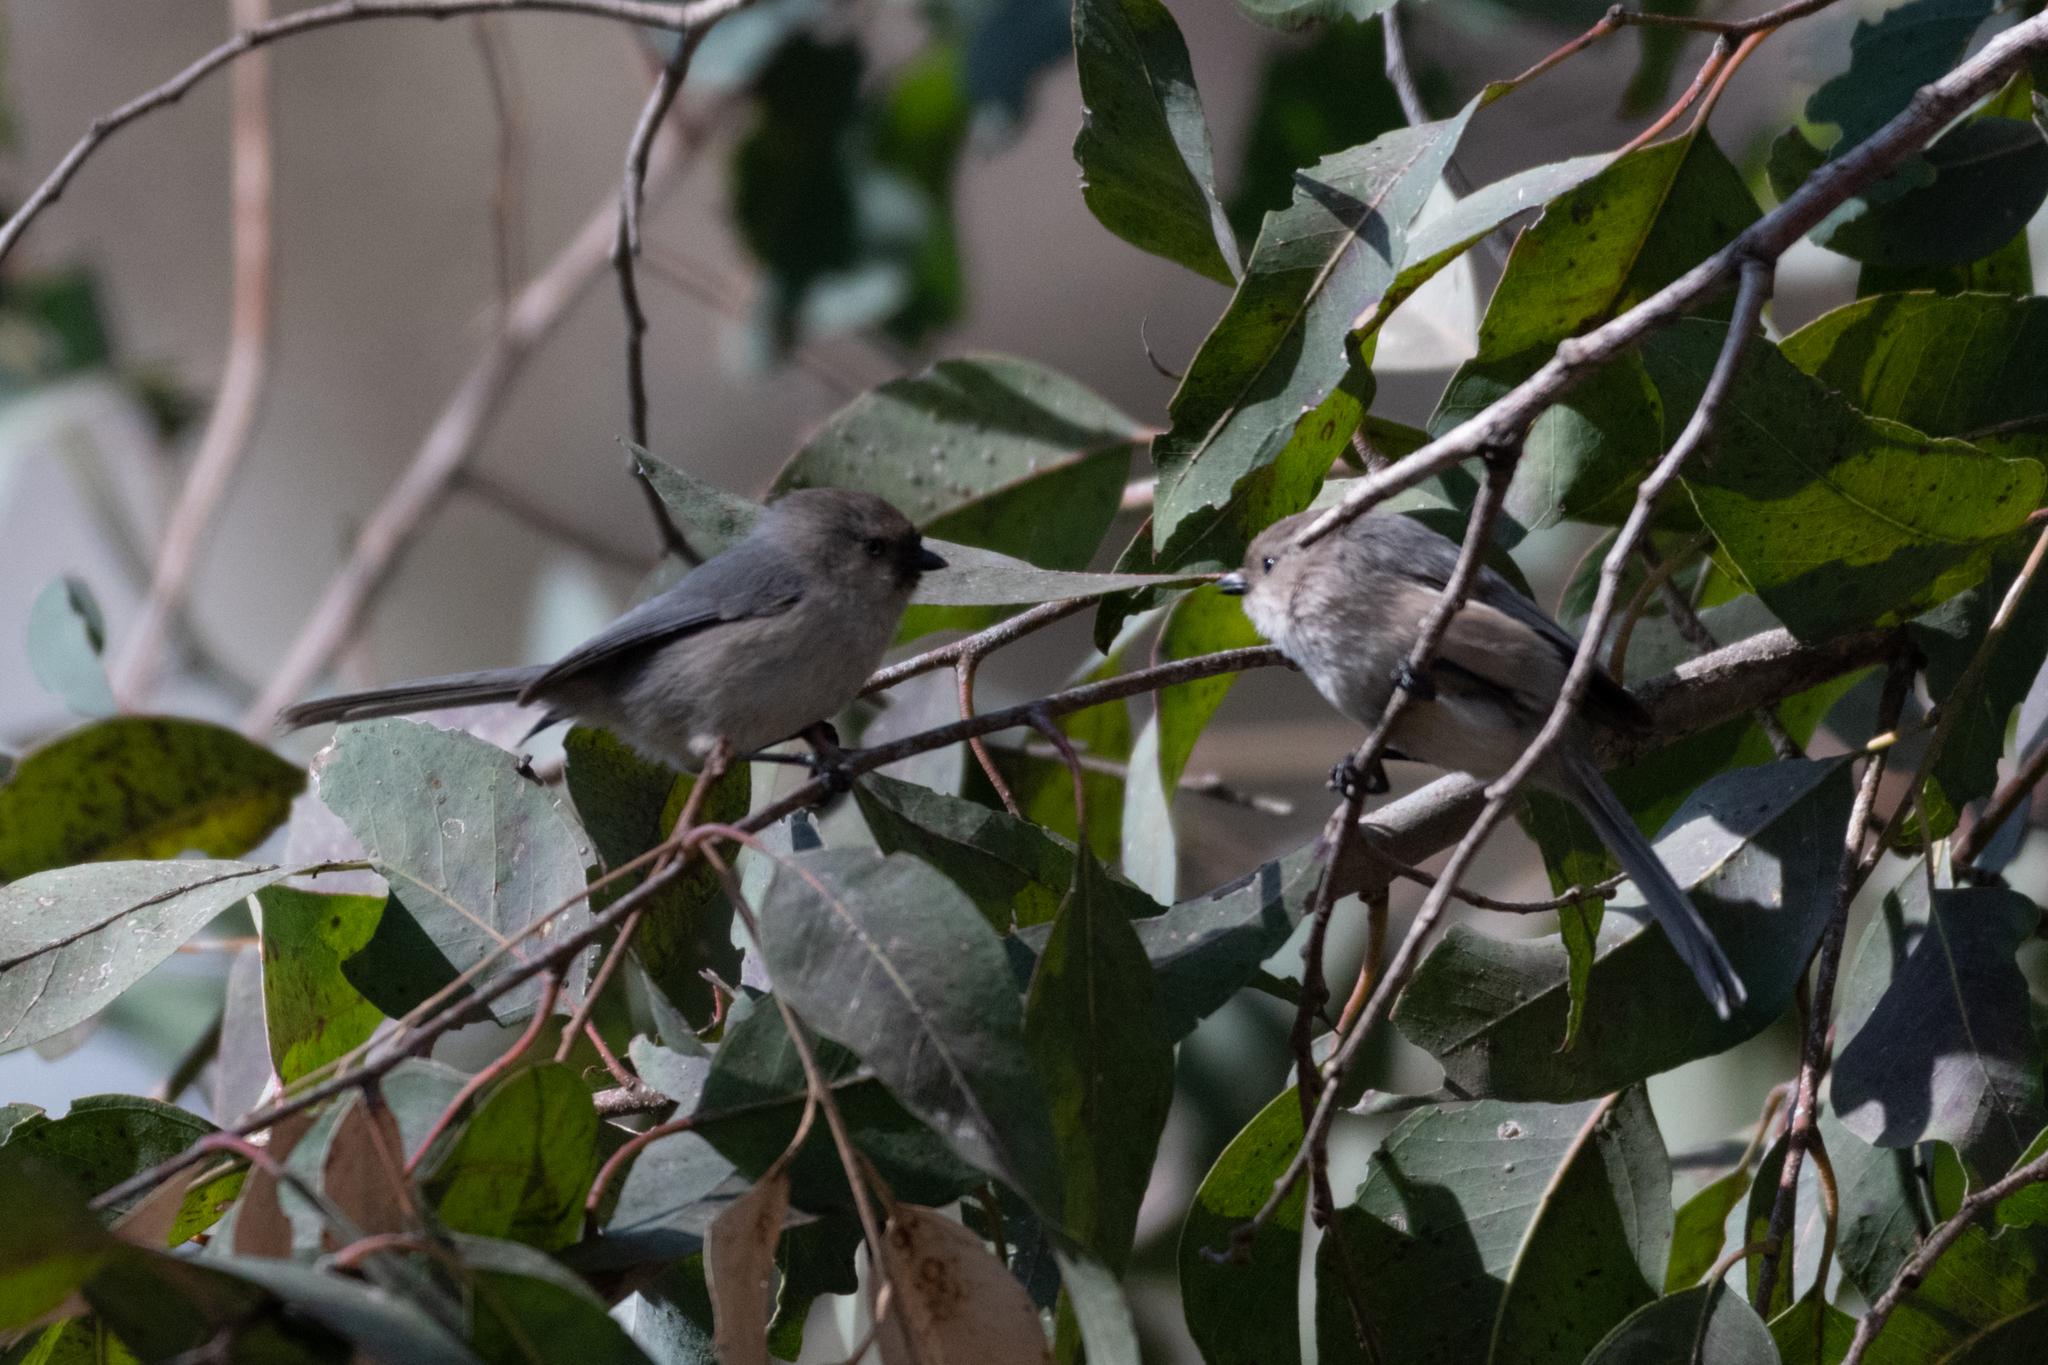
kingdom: Animalia
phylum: Chordata
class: Aves
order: Passeriformes
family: Aegithalidae
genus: Psaltriparus
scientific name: Psaltriparus minimus
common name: American bushtit
